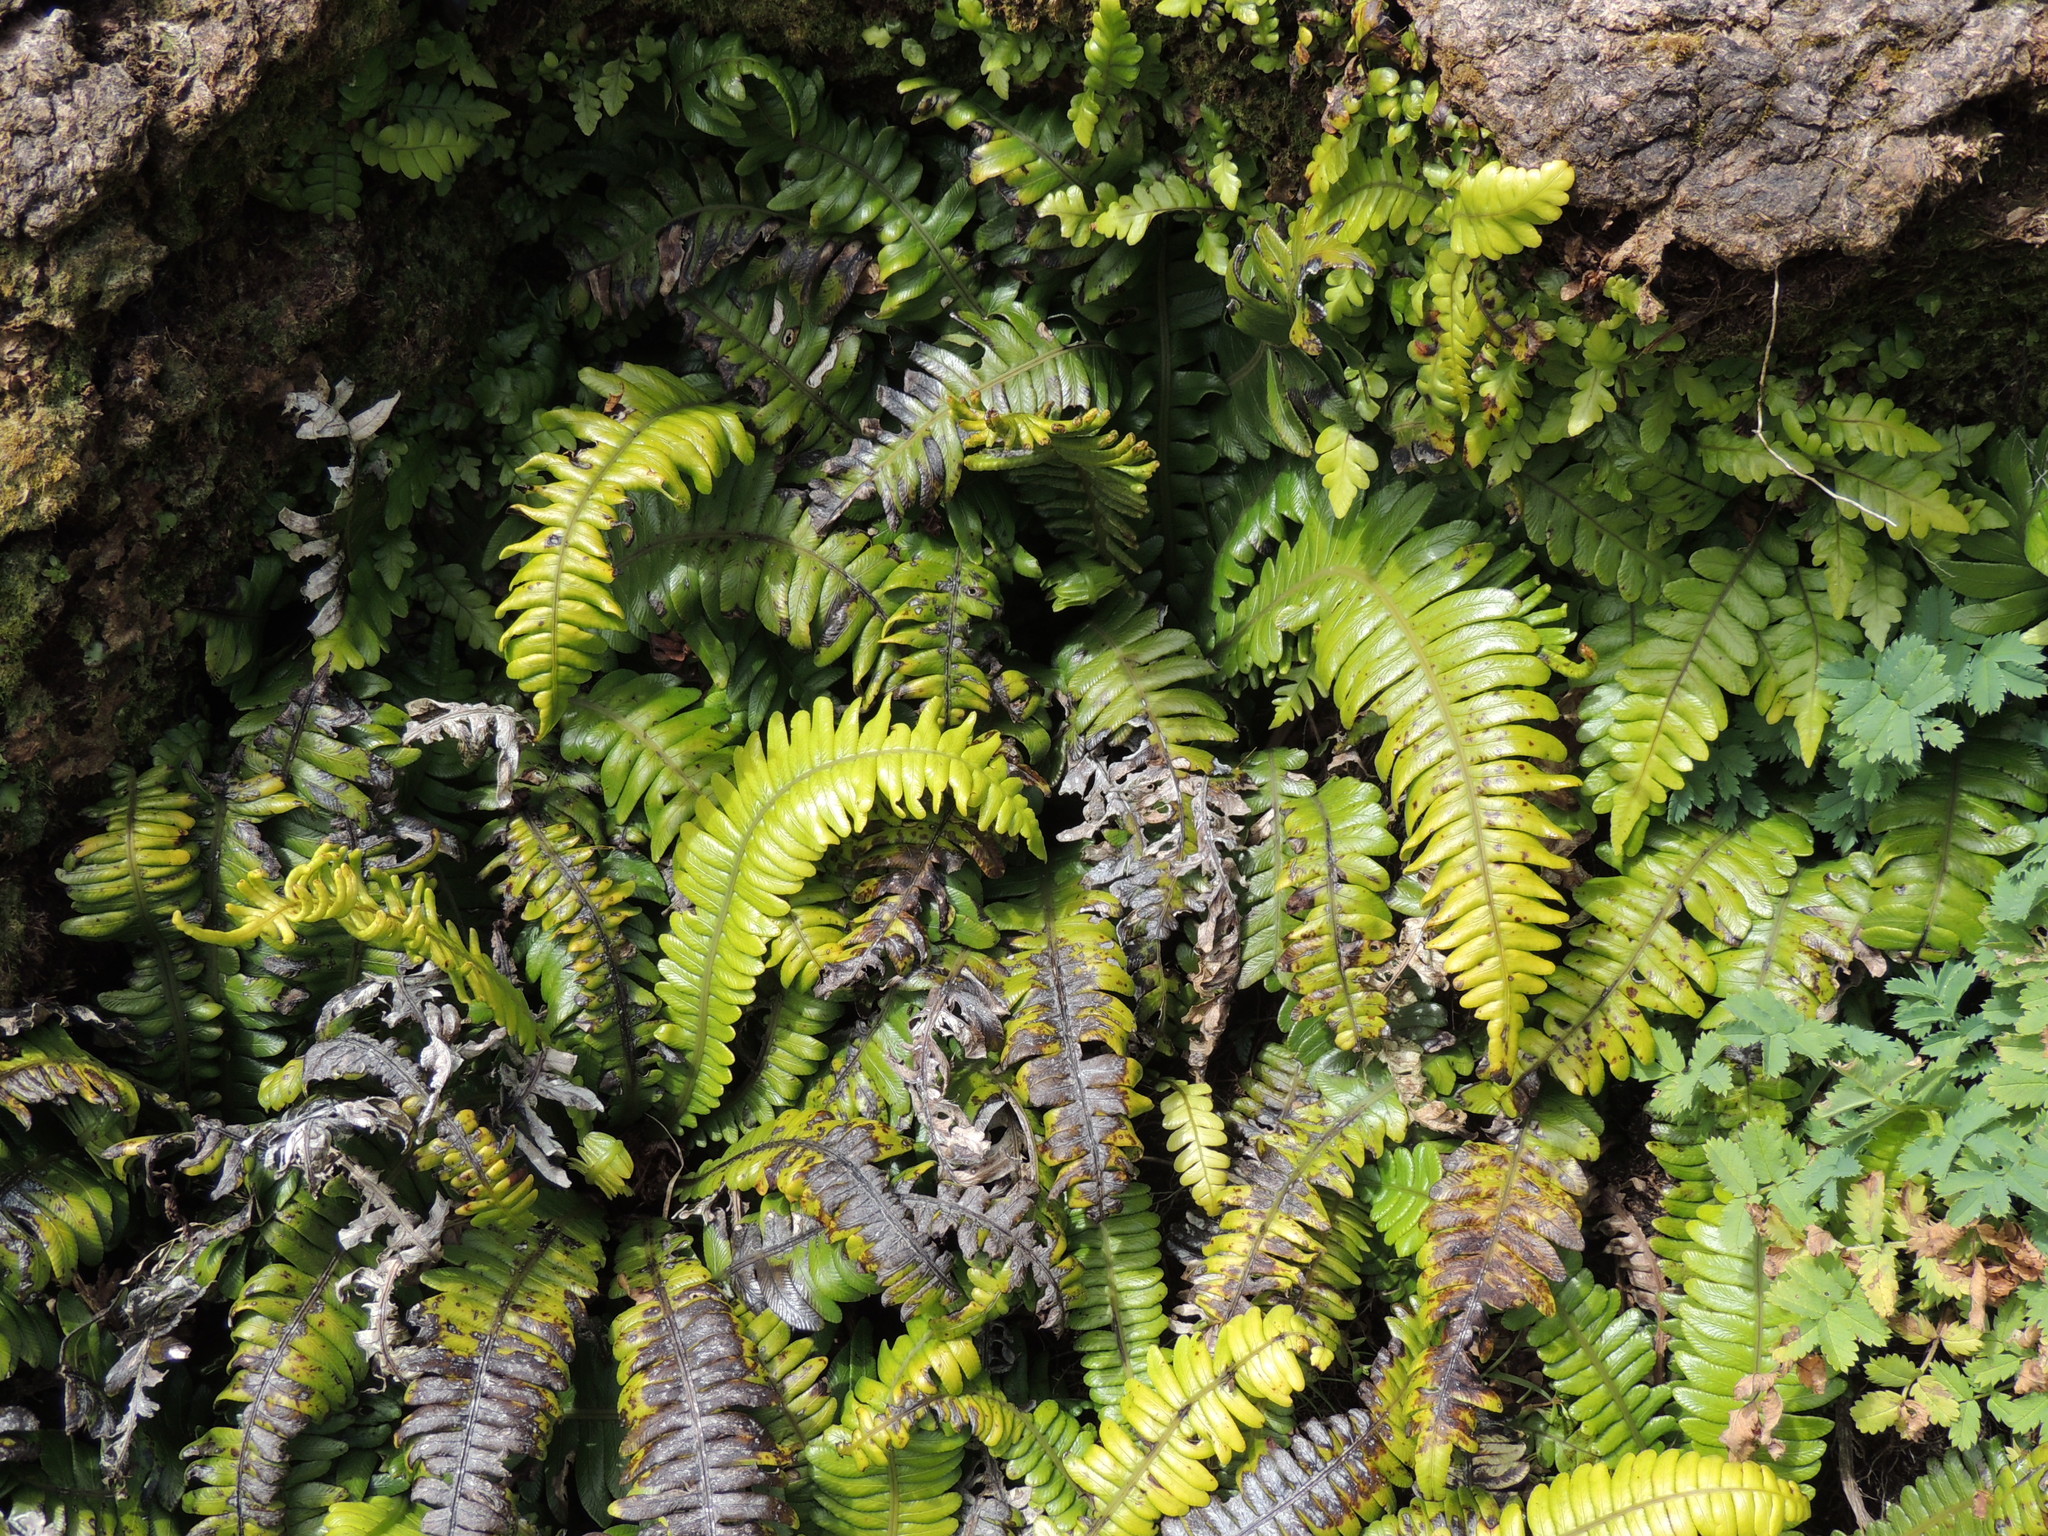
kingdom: Plantae
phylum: Tracheophyta
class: Polypodiopsida
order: Polypodiales
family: Blechnaceae
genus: Austroblechnum
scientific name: Austroblechnum durum
